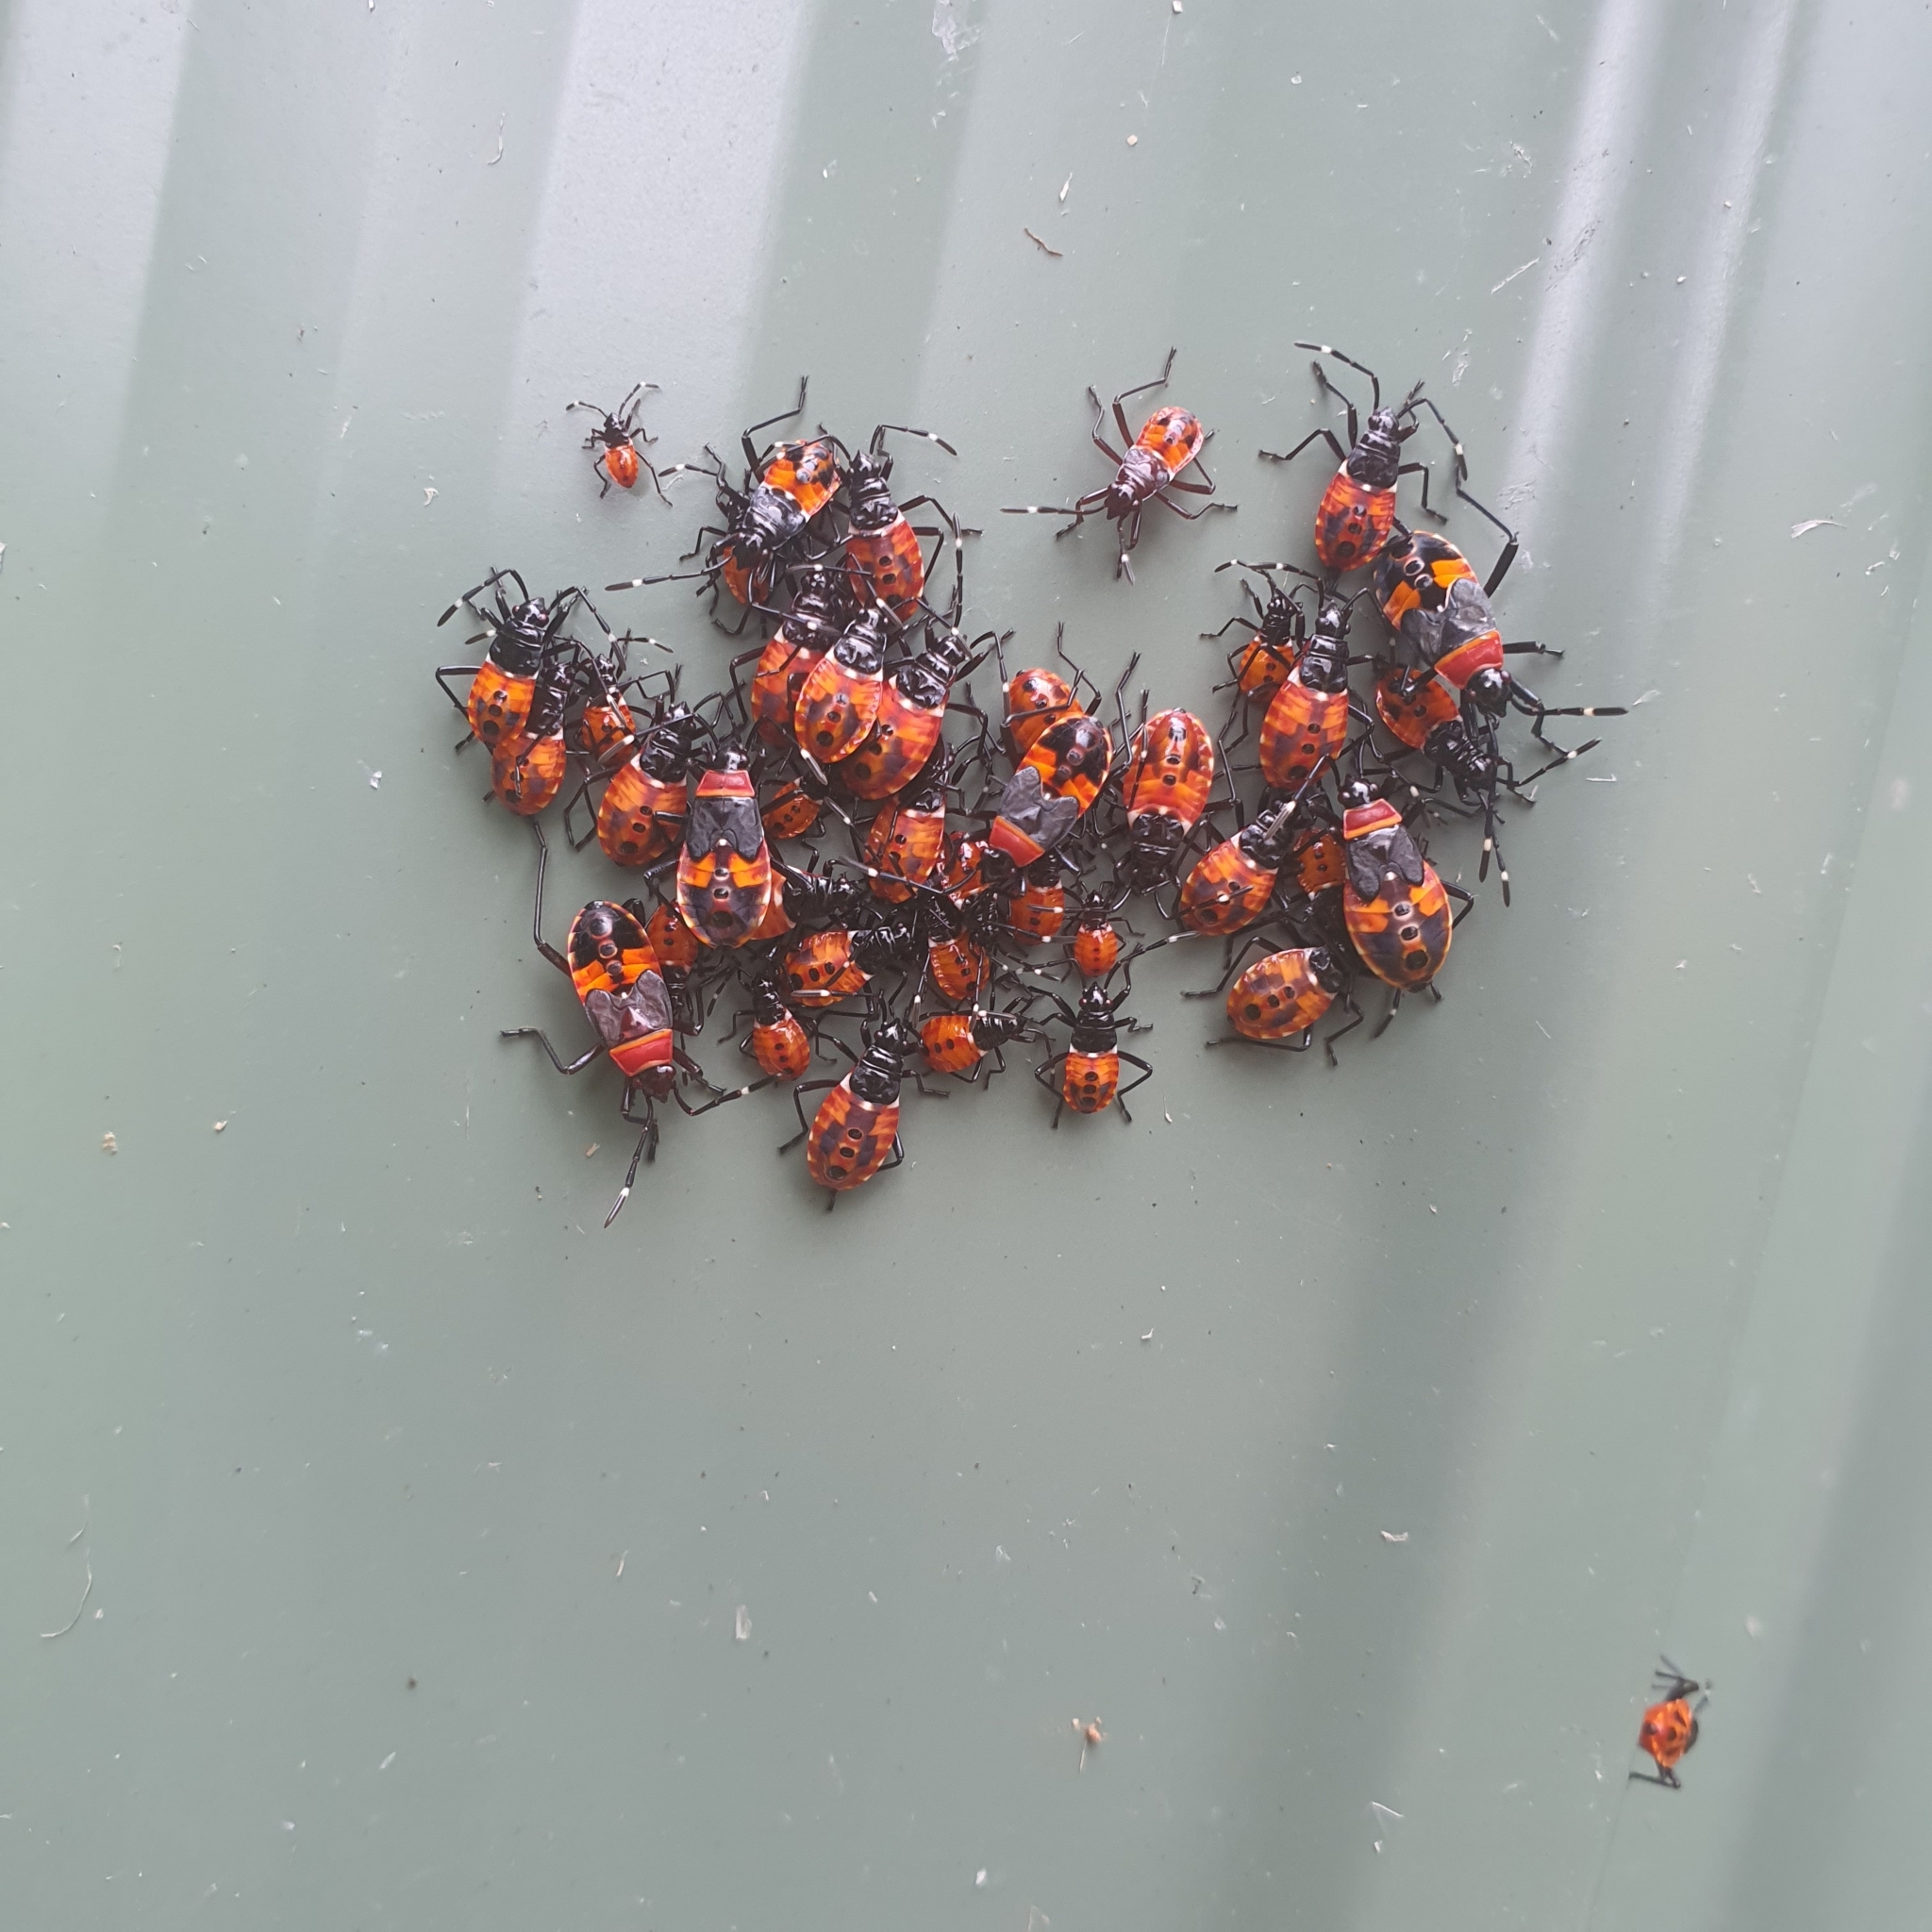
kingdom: Animalia
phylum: Arthropoda
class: Insecta
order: Hemiptera
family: Pyrrhocoridae
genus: Dindymus
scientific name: Dindymus
